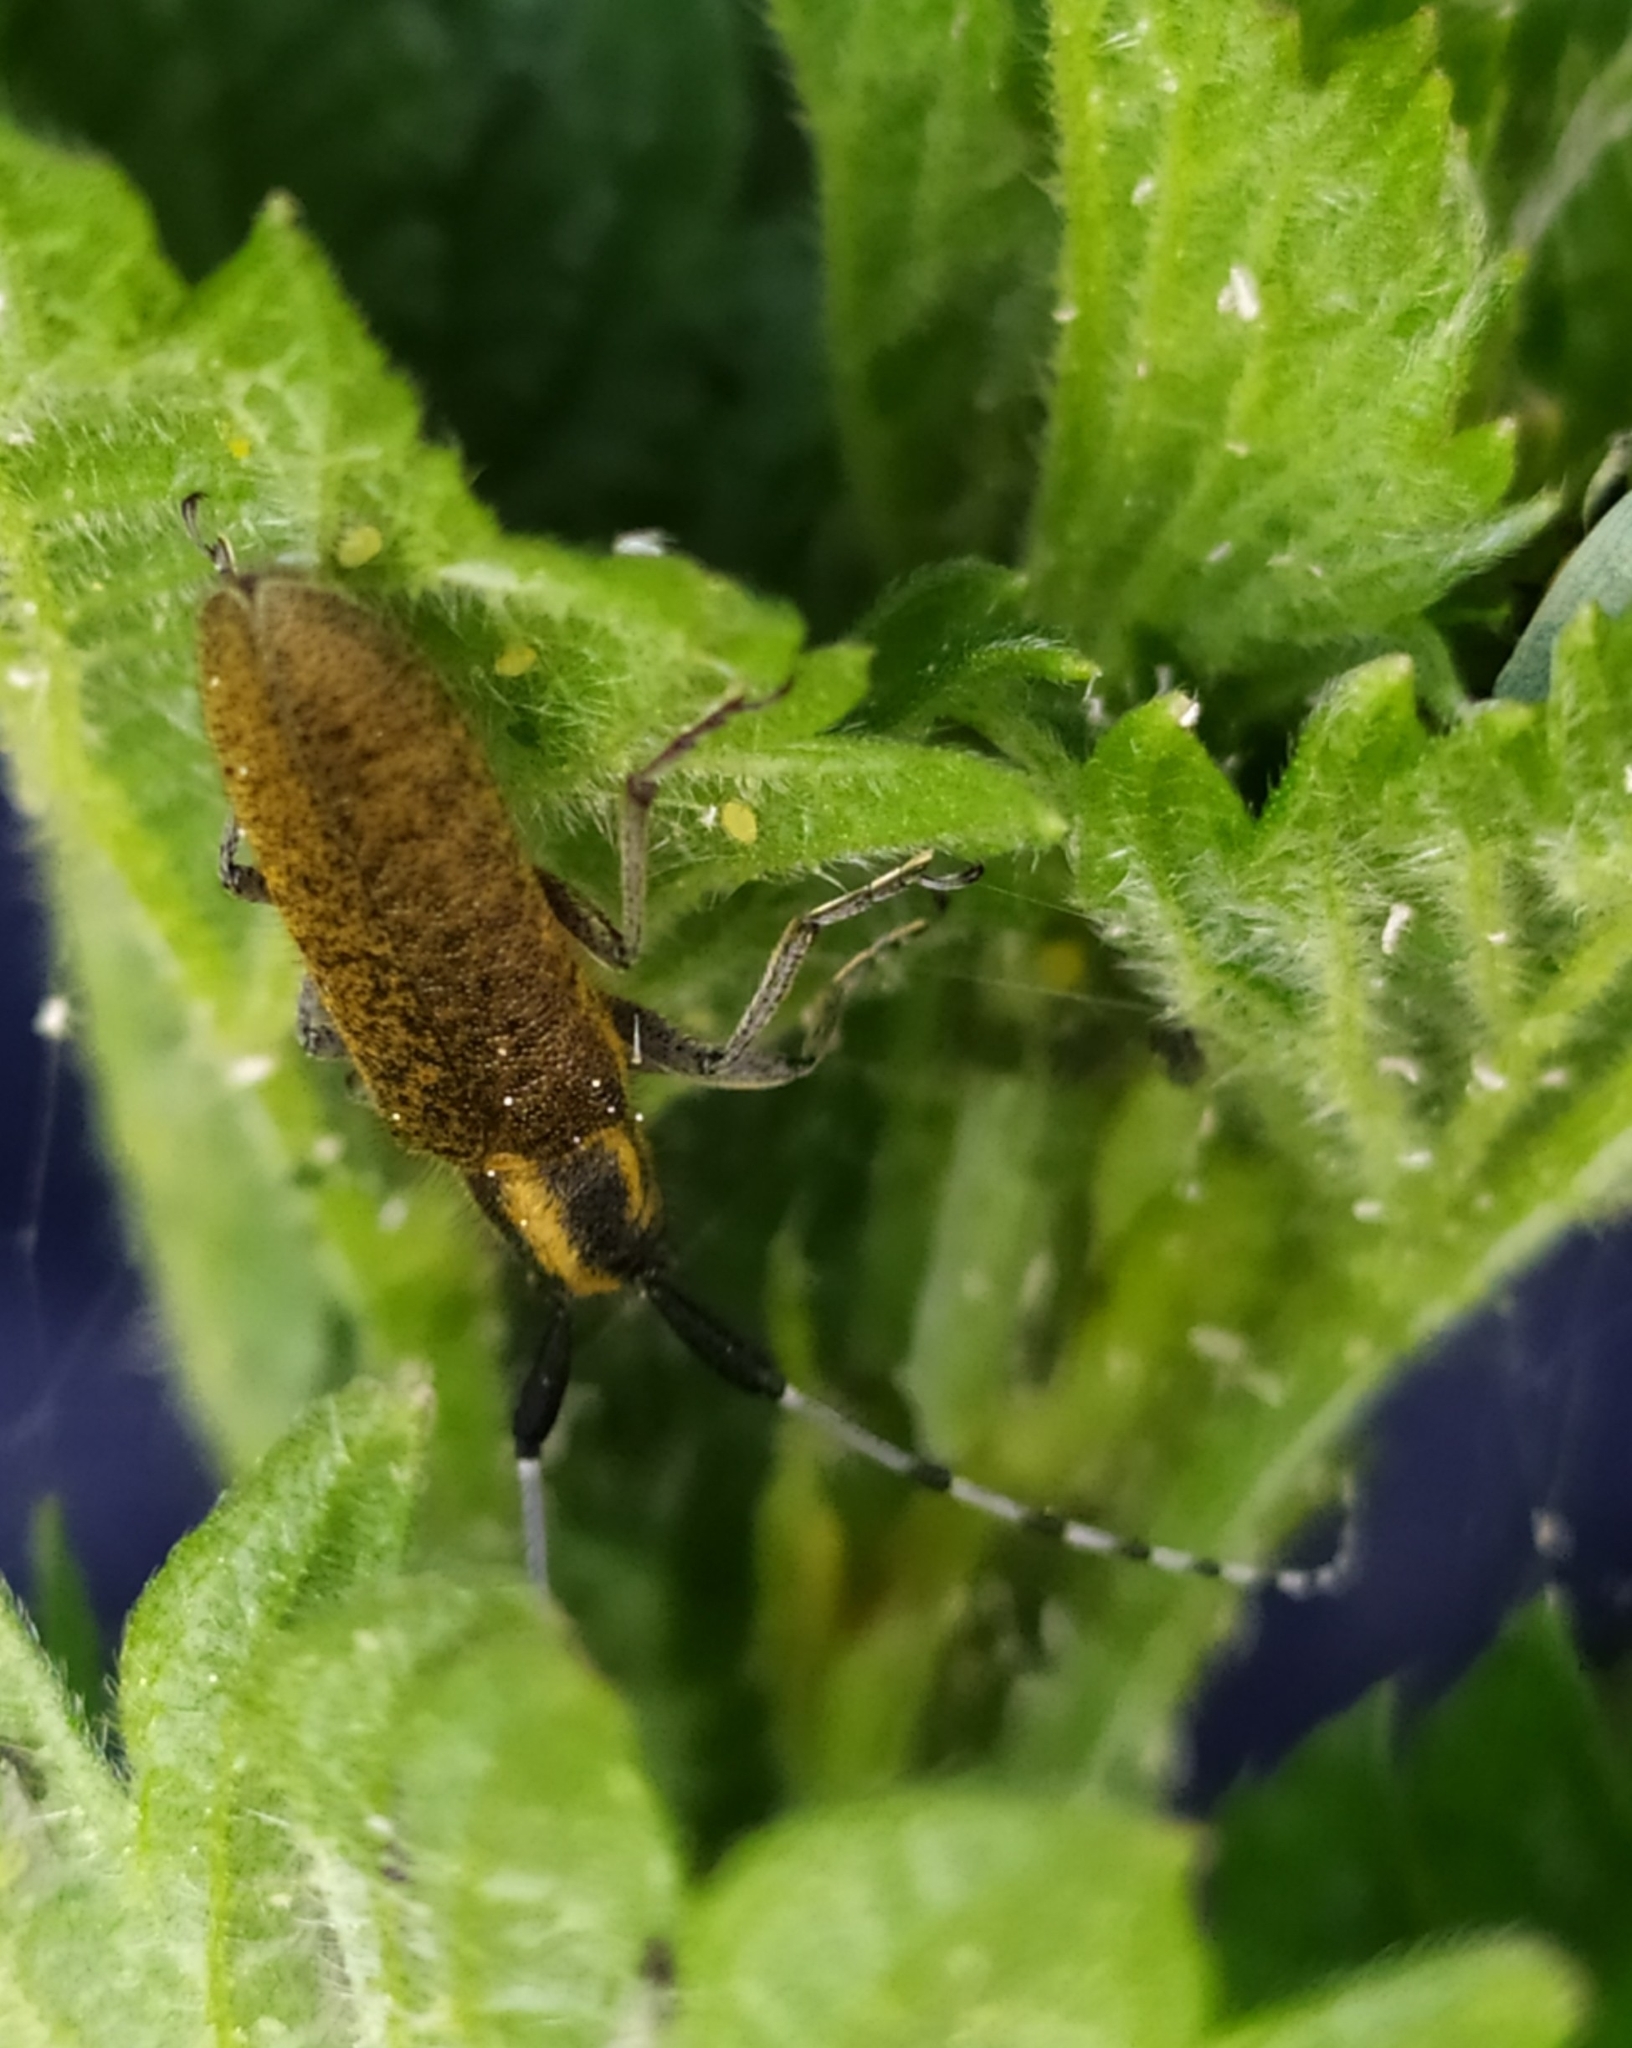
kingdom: Animalia
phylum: Arthropoda
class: Insecta
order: Coleoptera
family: Cerambycidae
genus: Agapanthia
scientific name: Agapanthia villosoviridescens
